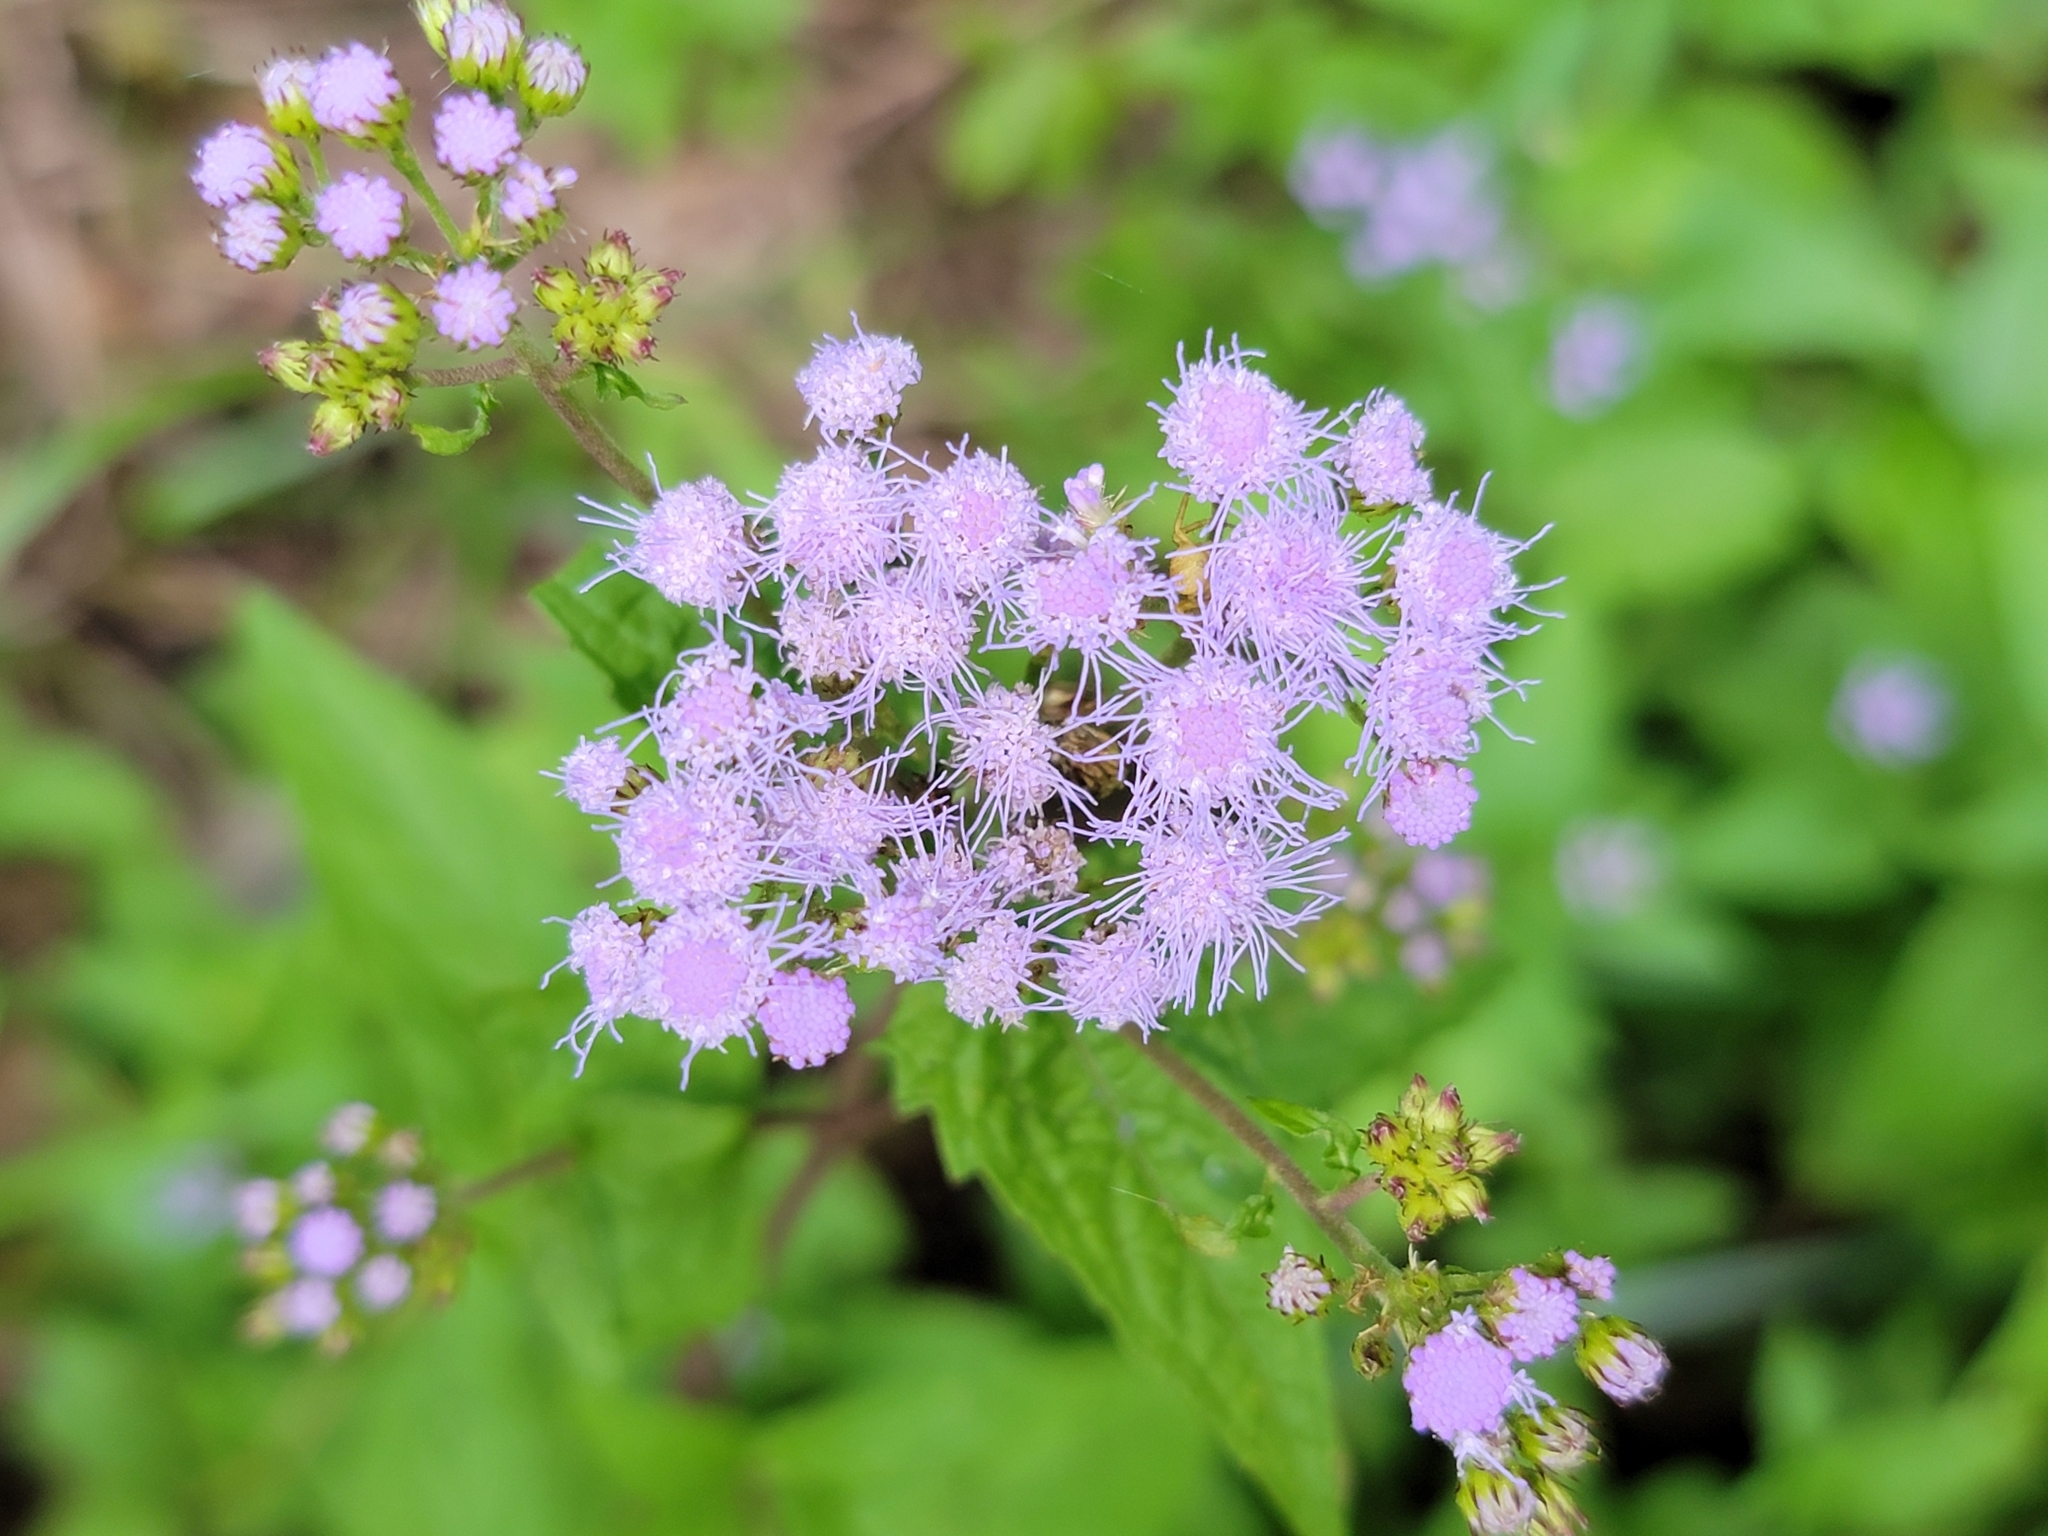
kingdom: Plantae
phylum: Tracheophyta
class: Magnoliopsida
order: Asterales
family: Asteraceae
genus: Conoclinium
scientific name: Conoclinium coelestinum
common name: Blue mistflower
